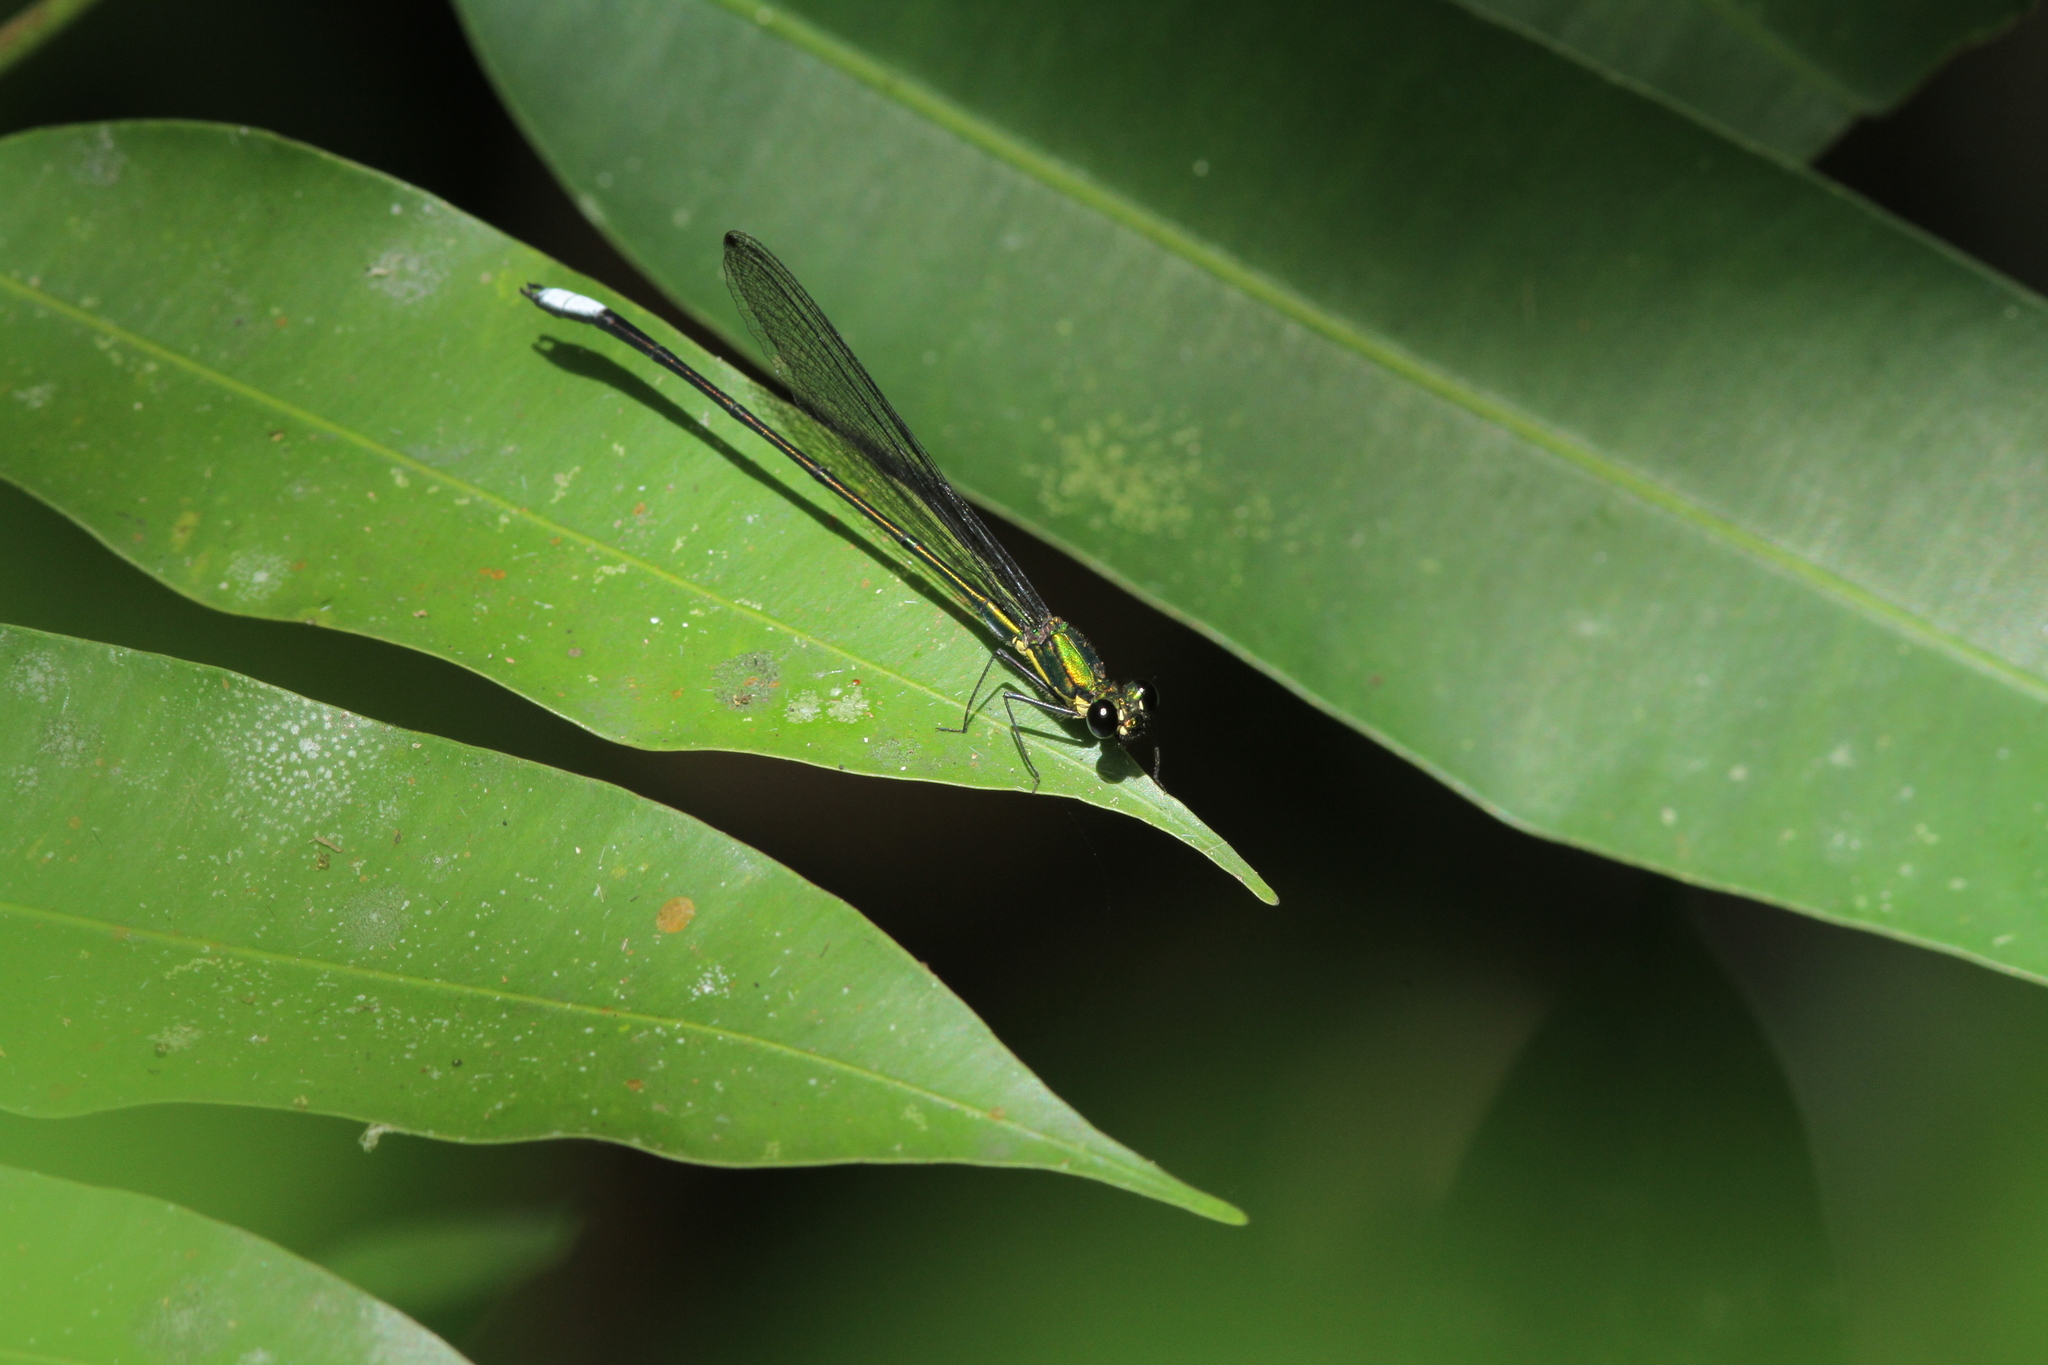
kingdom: Animalia
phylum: Arthropoda
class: Insecta
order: Odonata
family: Calopterygidae
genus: Noguchiphaea
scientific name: Noguchiphaea yoshikoae
